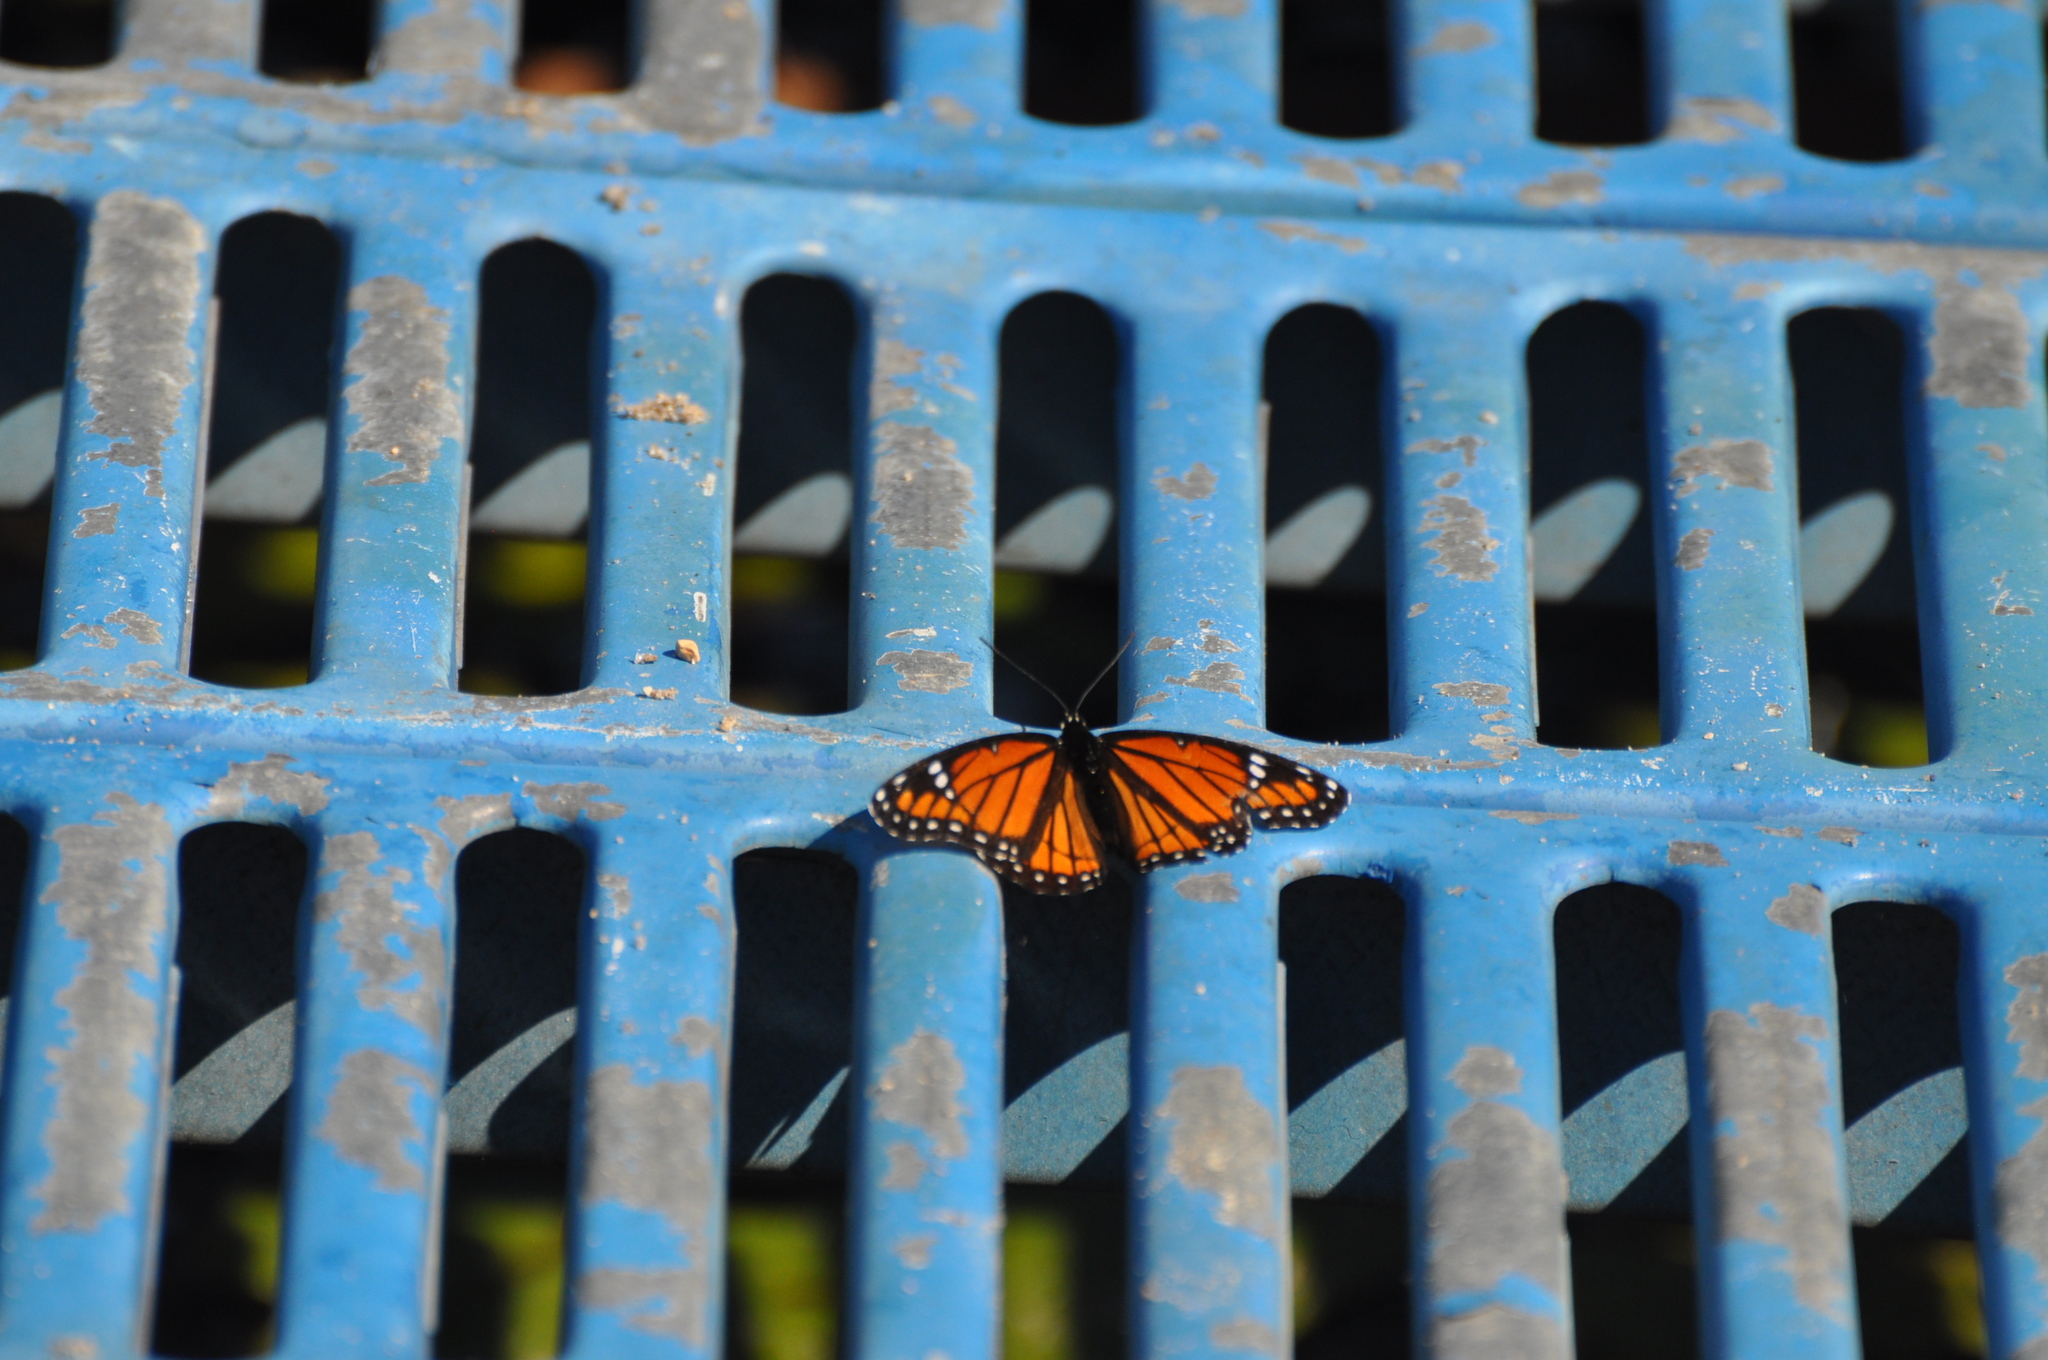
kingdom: Animalia
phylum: Arthropoda
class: Insecta
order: Lepidoptera
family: Nymphalidae
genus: Limenitis
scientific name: Limenitis archippus
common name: Viceroy
